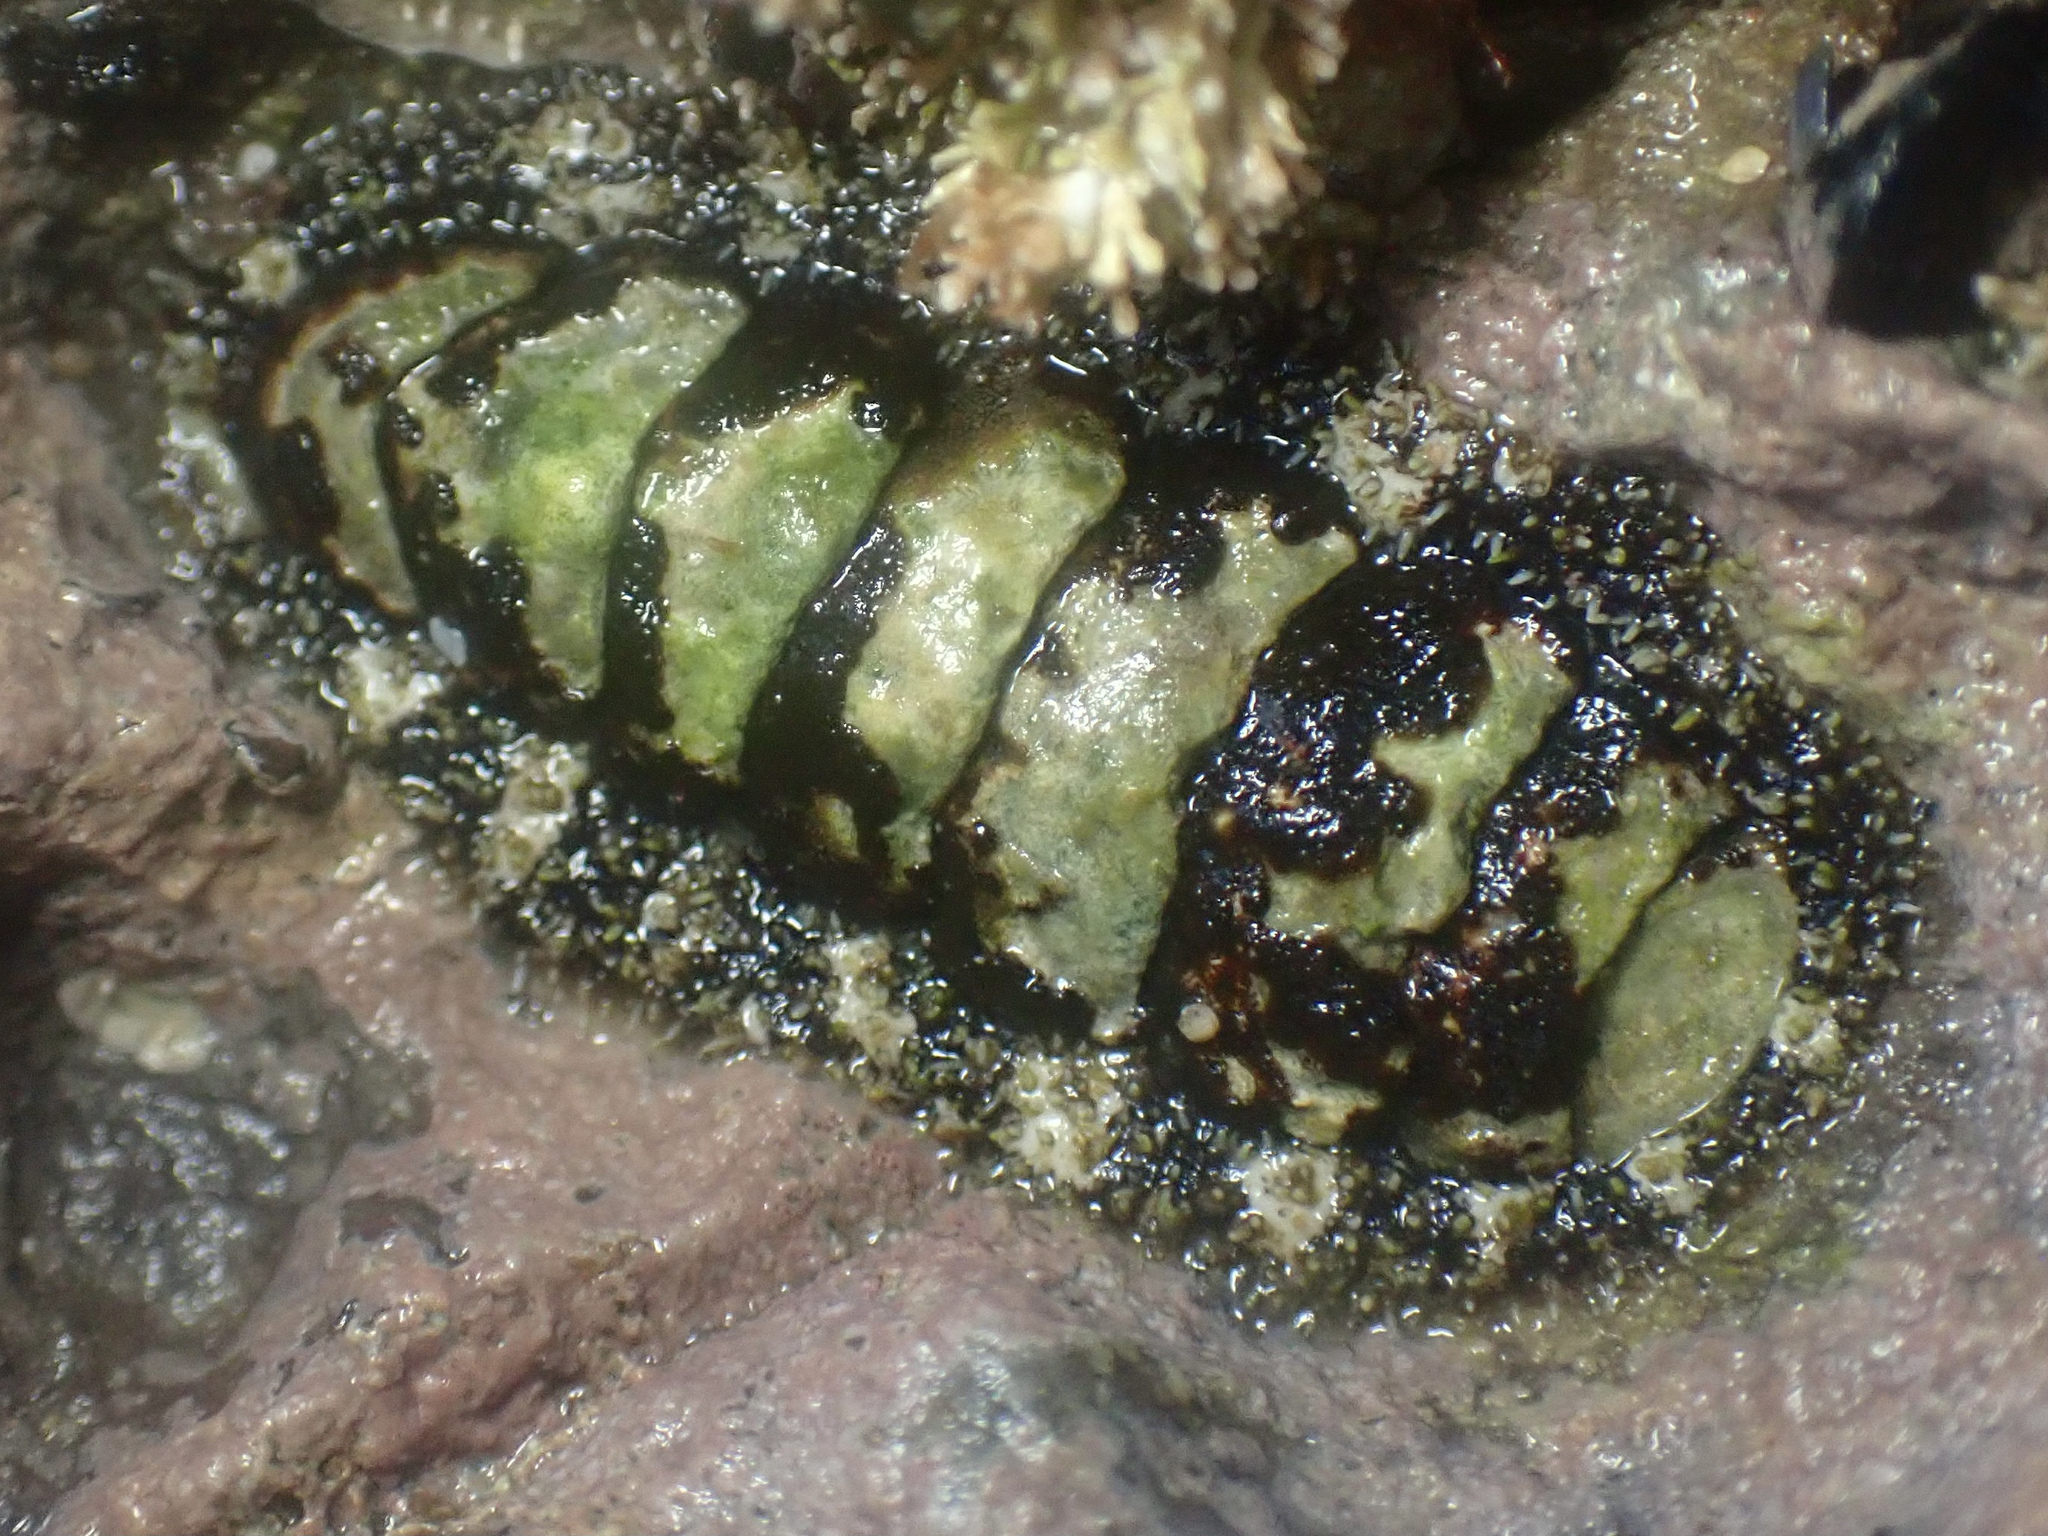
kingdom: Animalia
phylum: Mollusca
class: Polyplacophora
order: Chitonida
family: Tonicellidae
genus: Nuttallina
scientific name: Nuttallina californica
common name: California nuttall chiton
